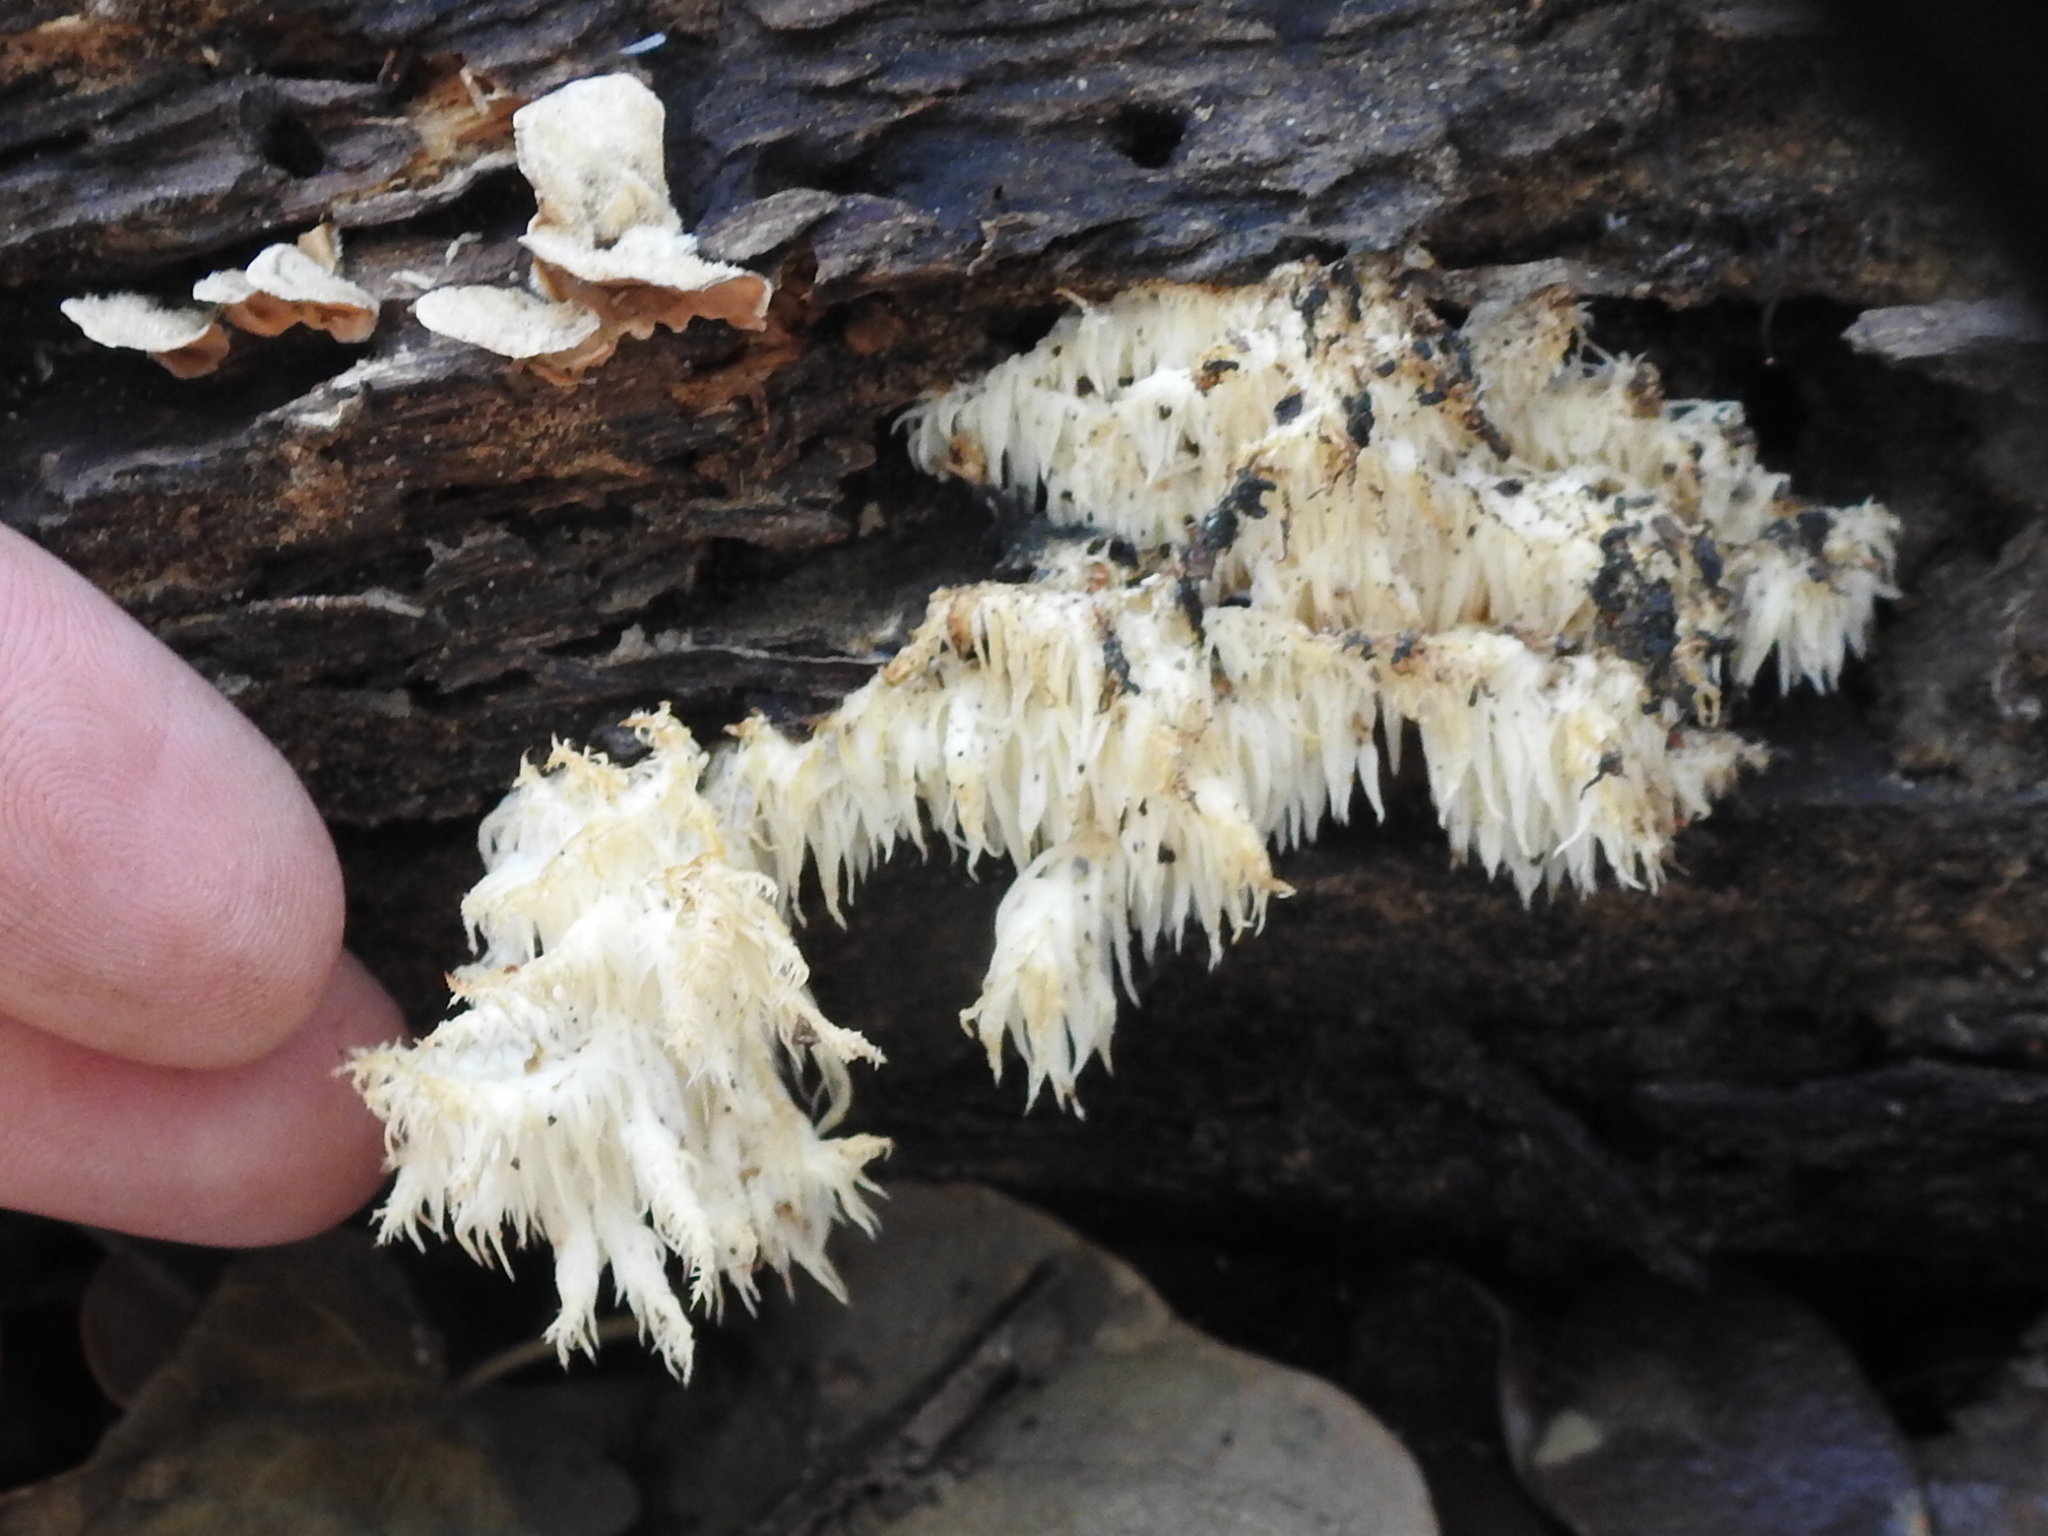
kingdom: Fungi
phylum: Basidiomycota
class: Agaricomycetes
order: Russulales
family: Hericiaceae
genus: Hericium
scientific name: Hericium coralloides
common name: Coral tooth
